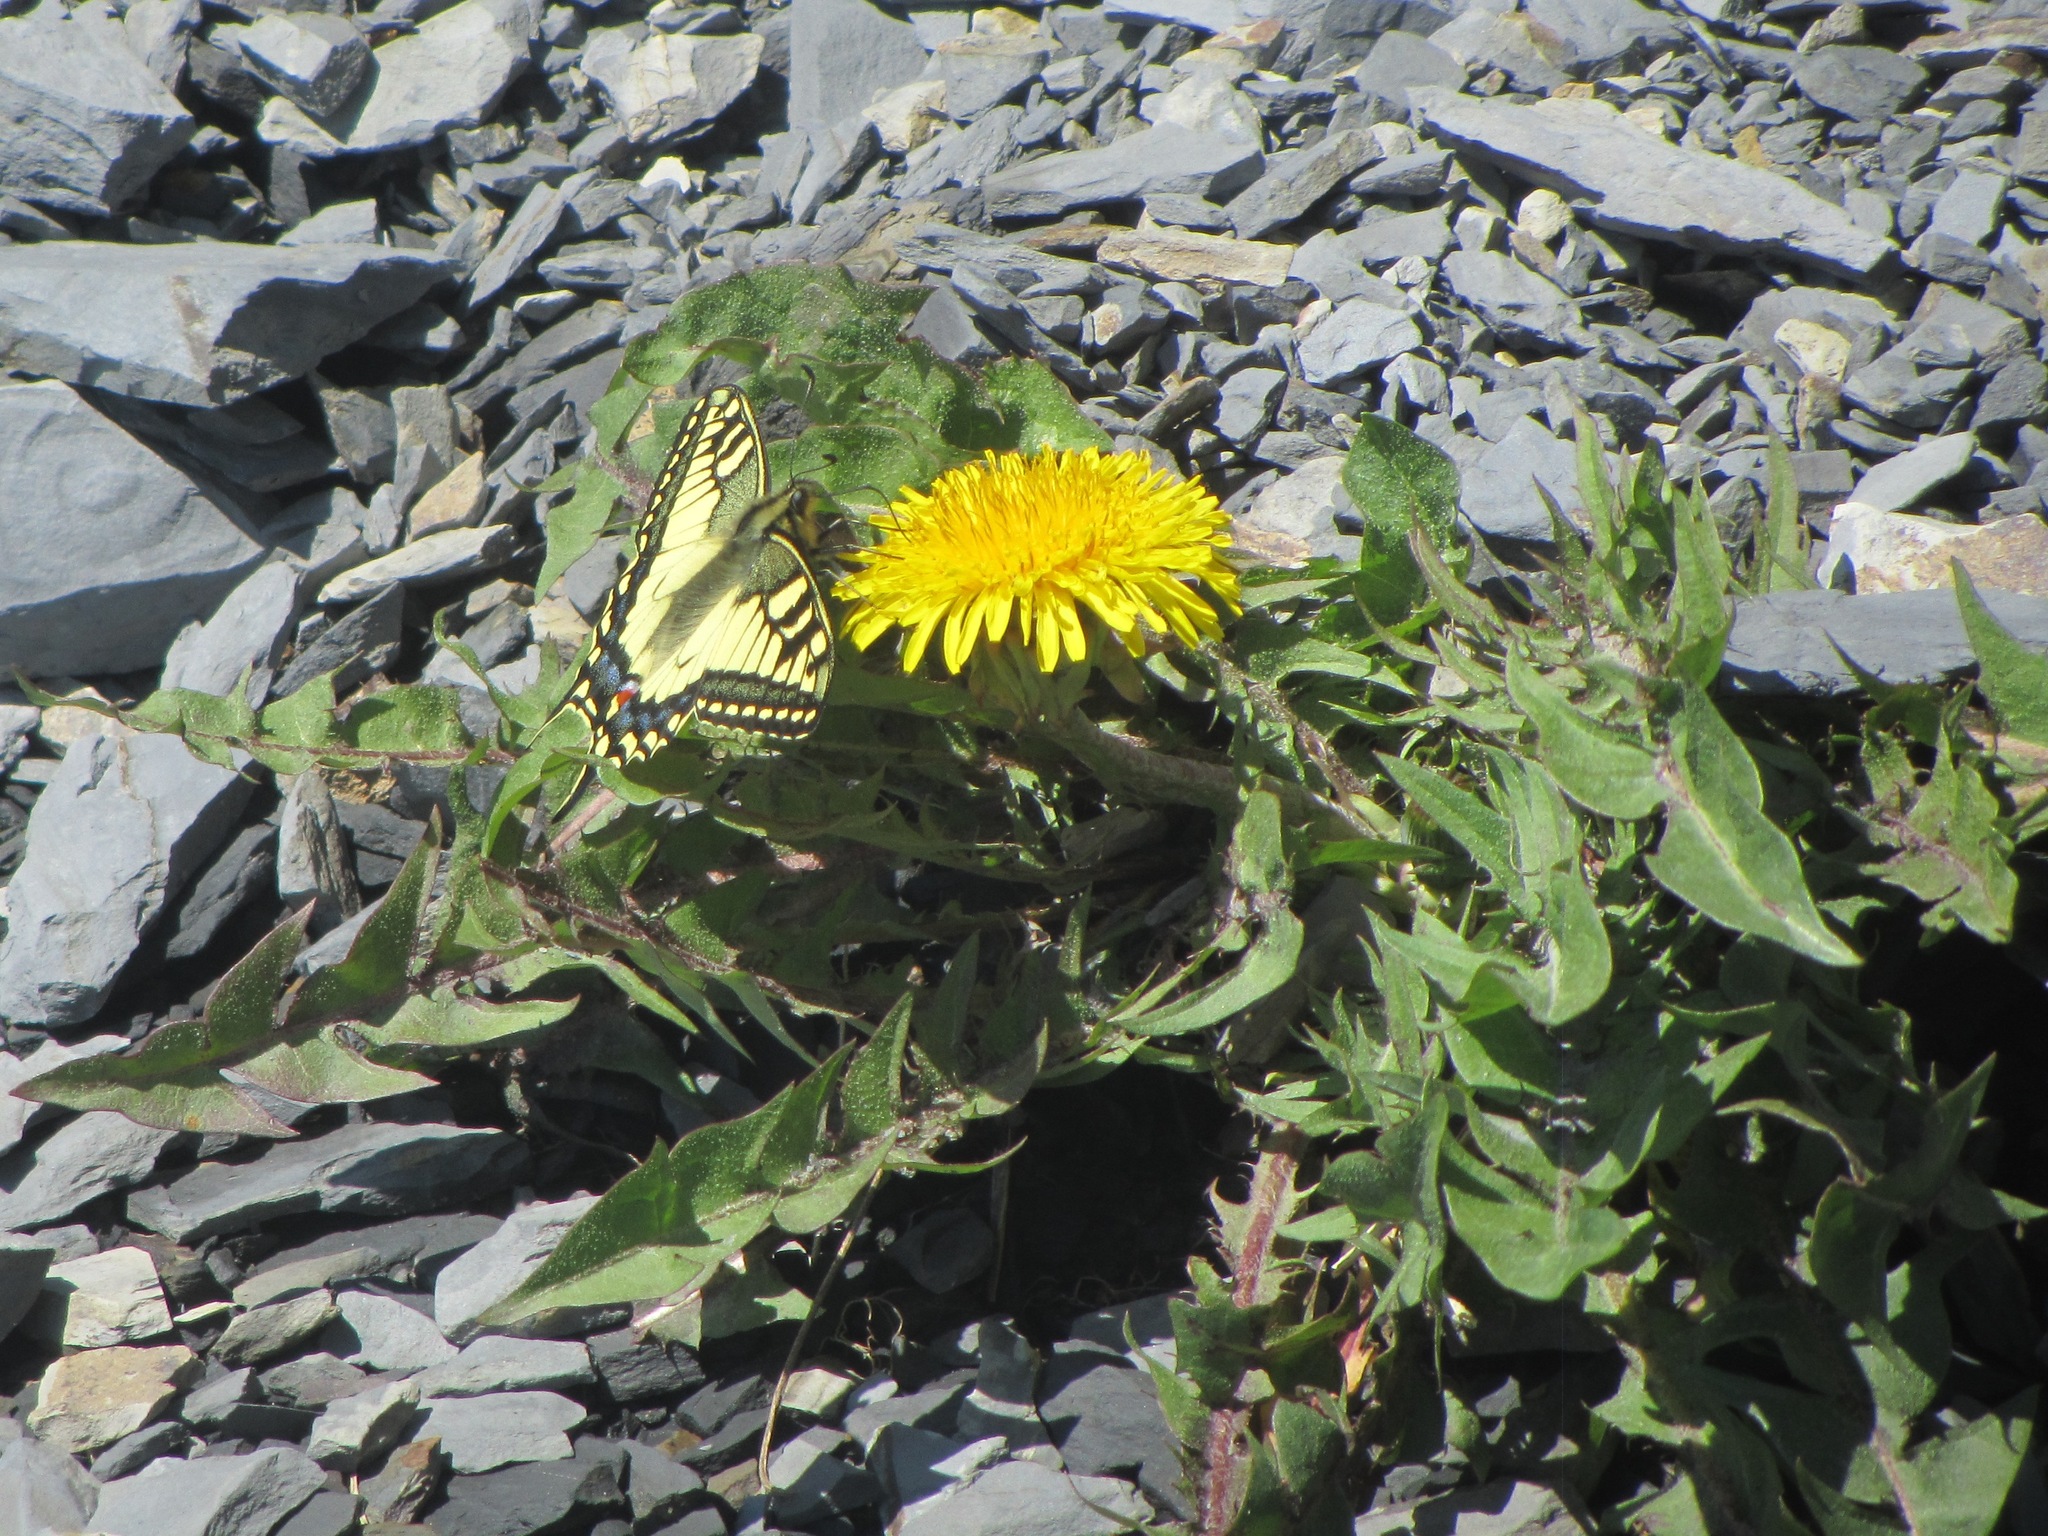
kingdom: Plantae
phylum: Tracheophyta
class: Magnoliopsida
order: Asterales
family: Asteraceae
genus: Taraxacum
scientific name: Taraxacum officinale
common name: Common dandelion
